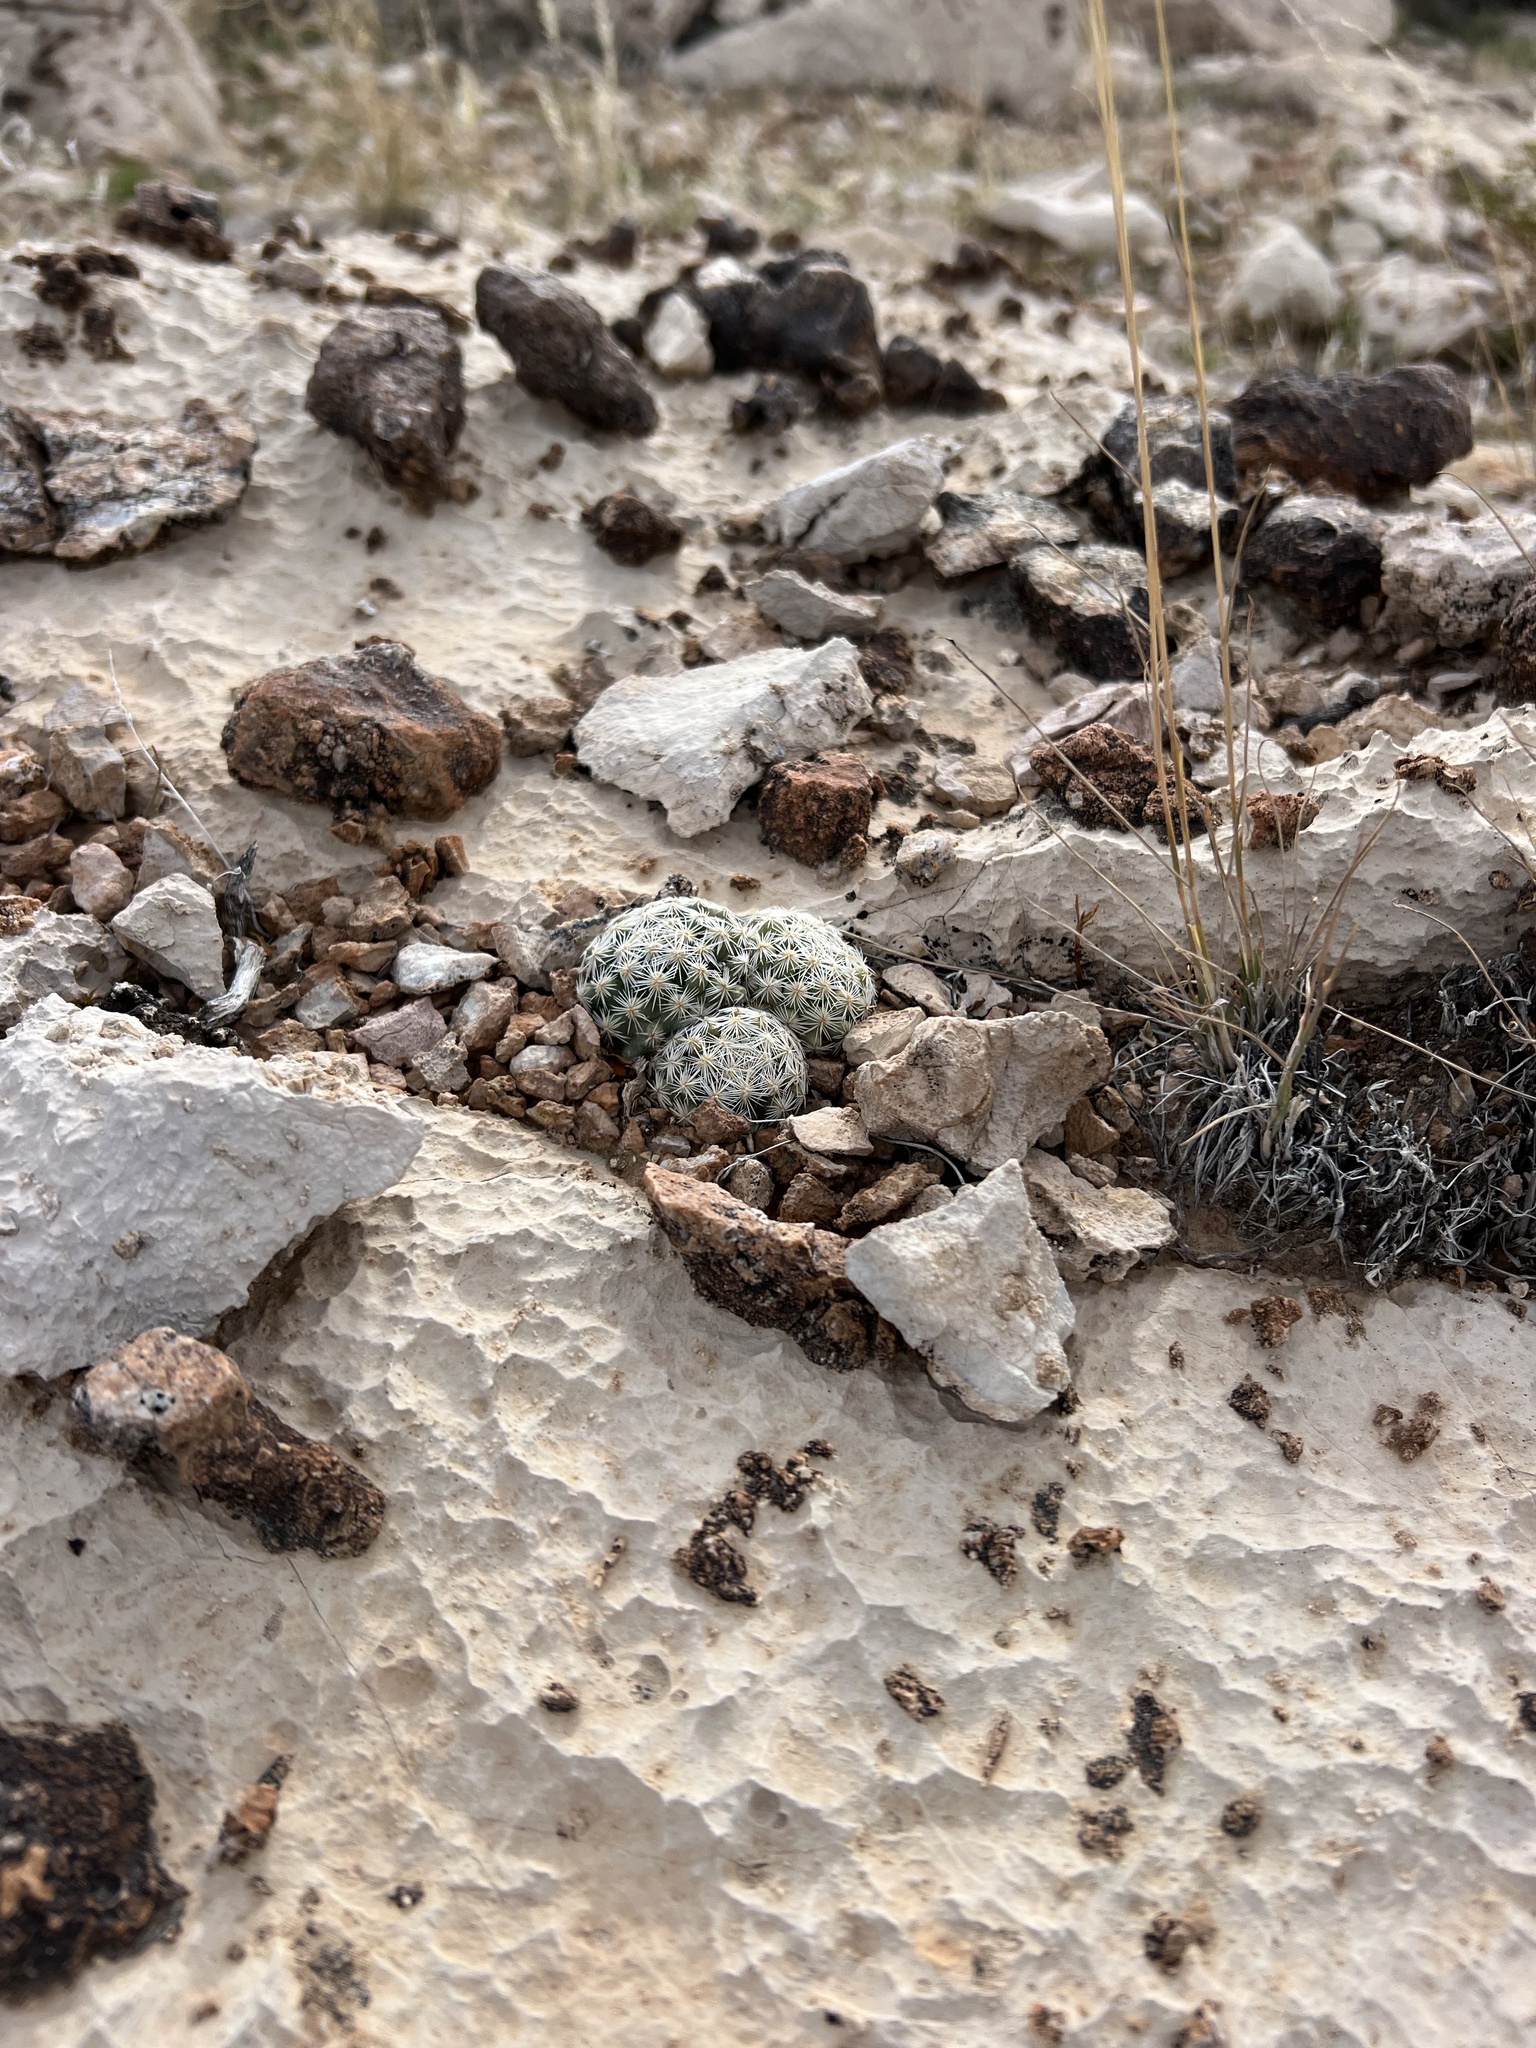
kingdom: Plantae
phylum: Tracheophyta
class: Magnoliopsida
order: Caryophyllales
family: Cactaceae
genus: Pelecyphora
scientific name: Pelecyphora dasyacantha
